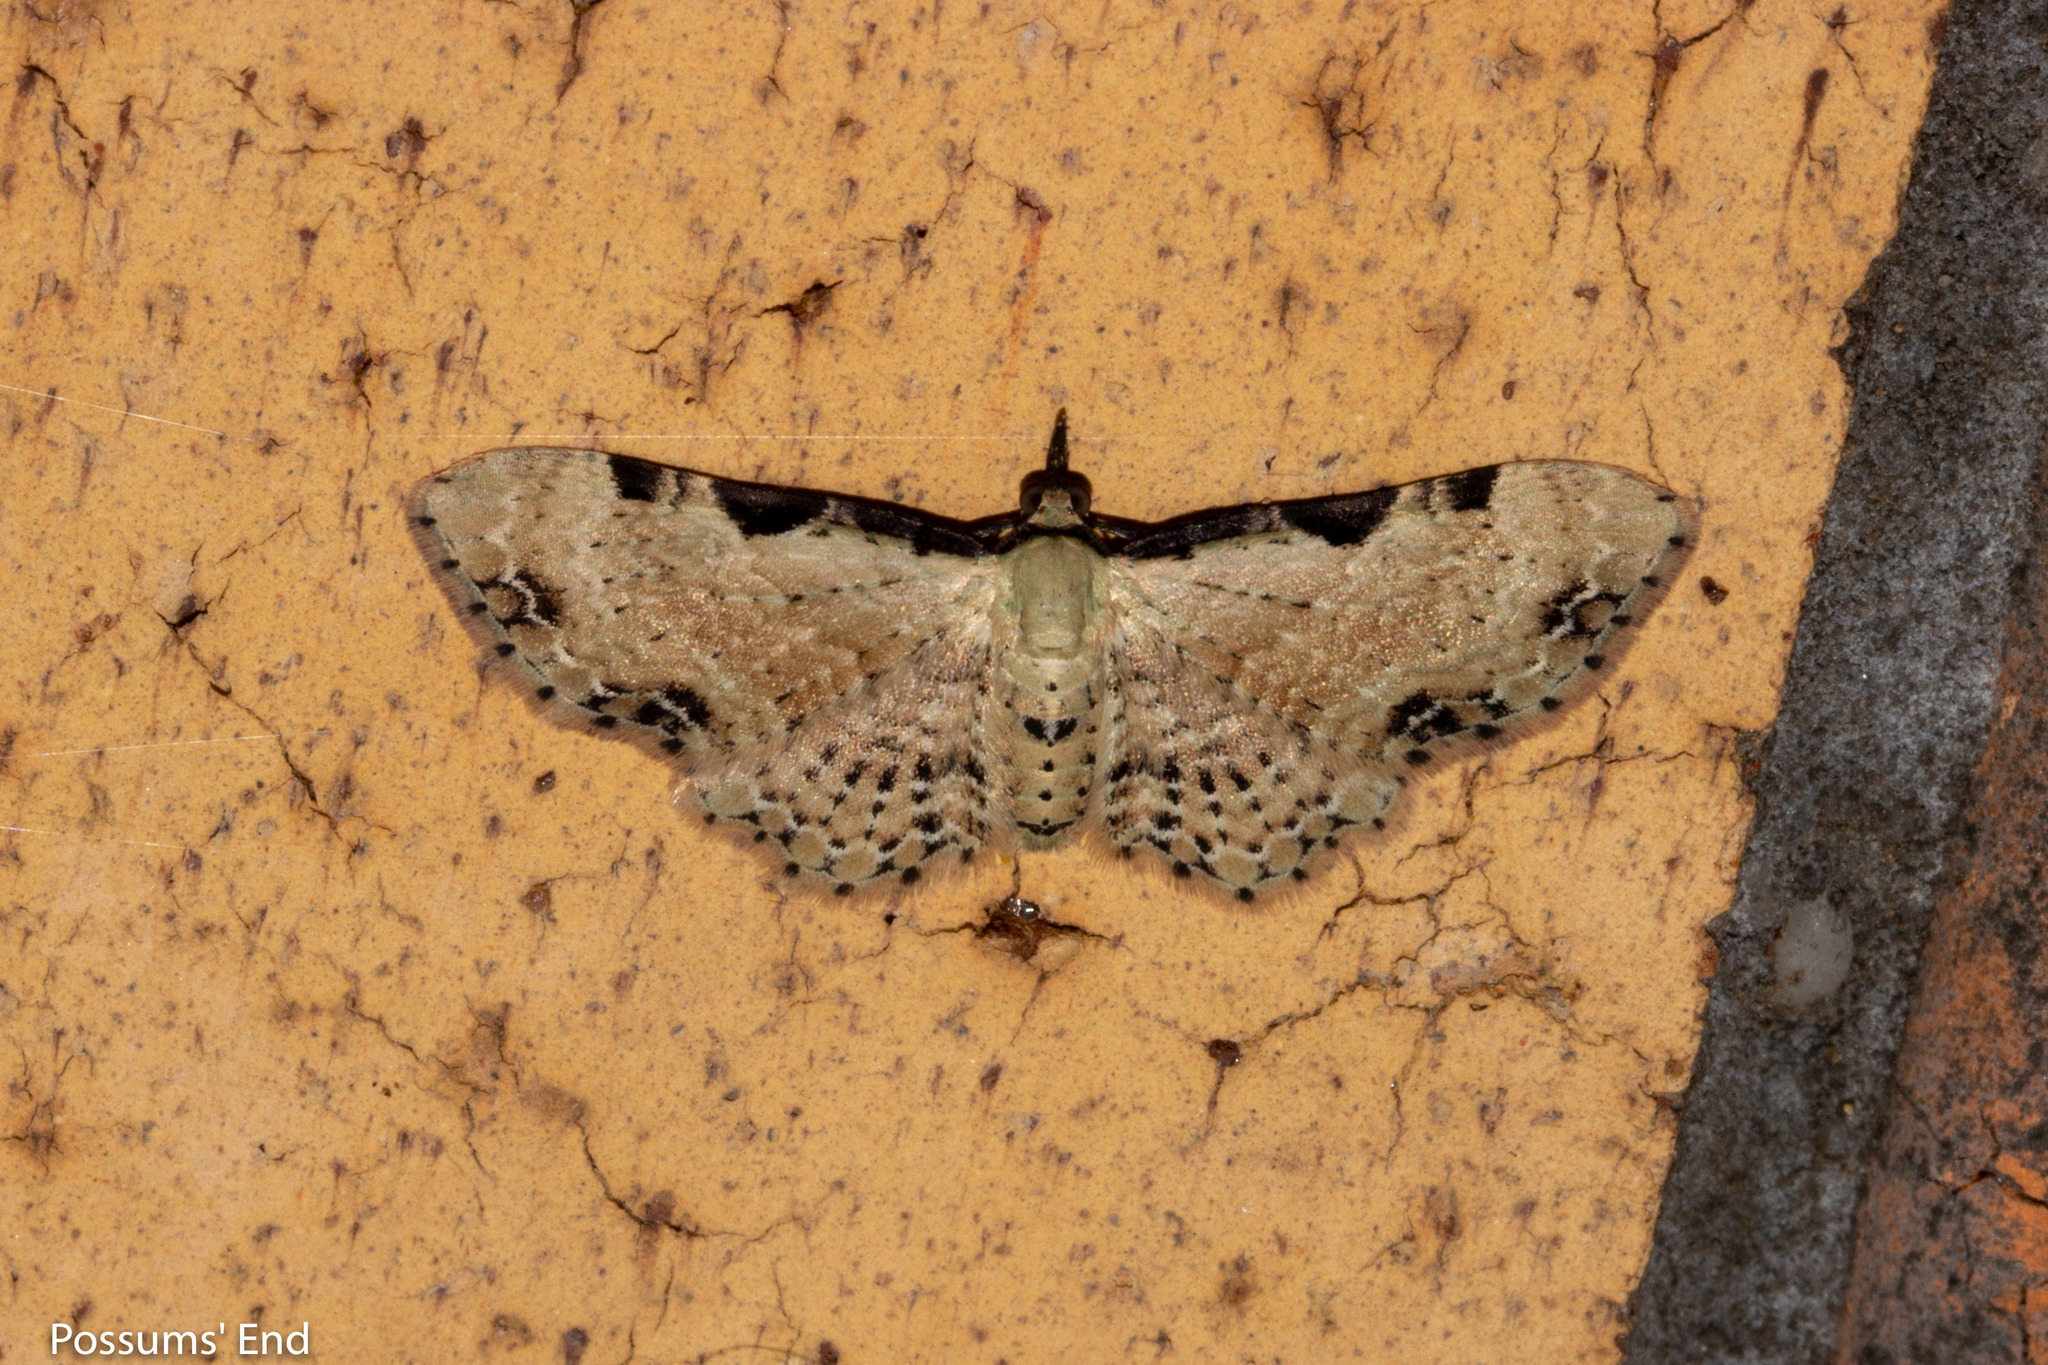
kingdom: Animalia
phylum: Arthropoda
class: Insecta
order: Lepidoptera
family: Geometridae
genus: Pasiphila
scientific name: Pasiphila fumipalpata
